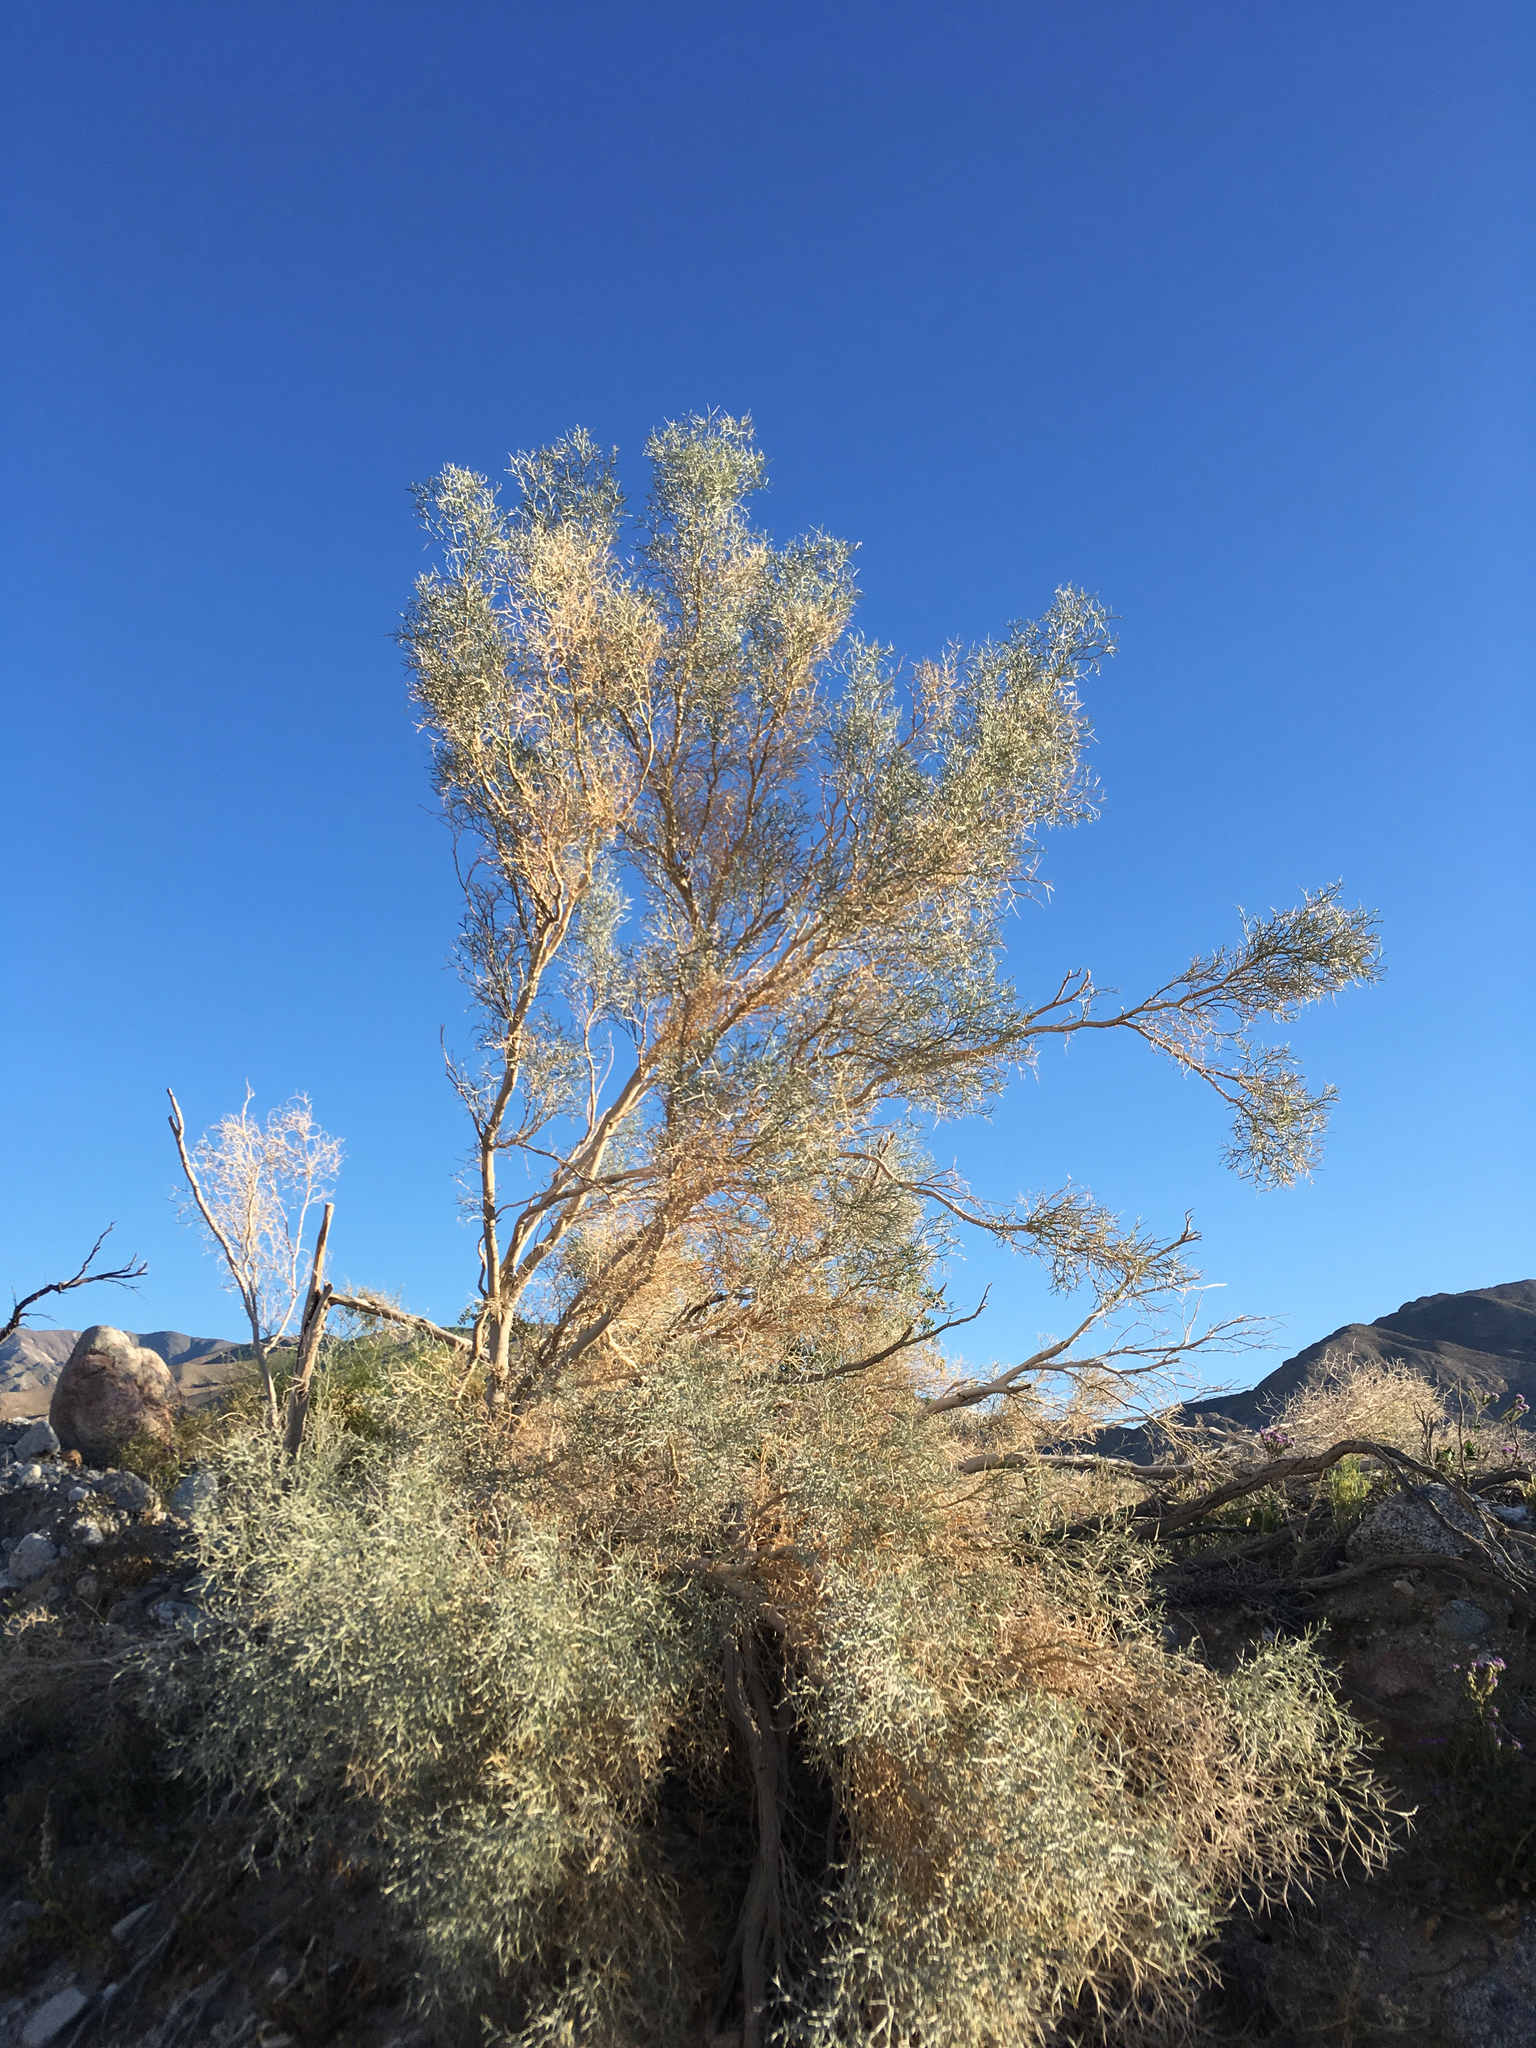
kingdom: Plantae
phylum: Tracheophyta
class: Magnoliopsida
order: Fabales
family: Fabaceae
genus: Psorothamnus
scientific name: Psorothamnus spinosus
